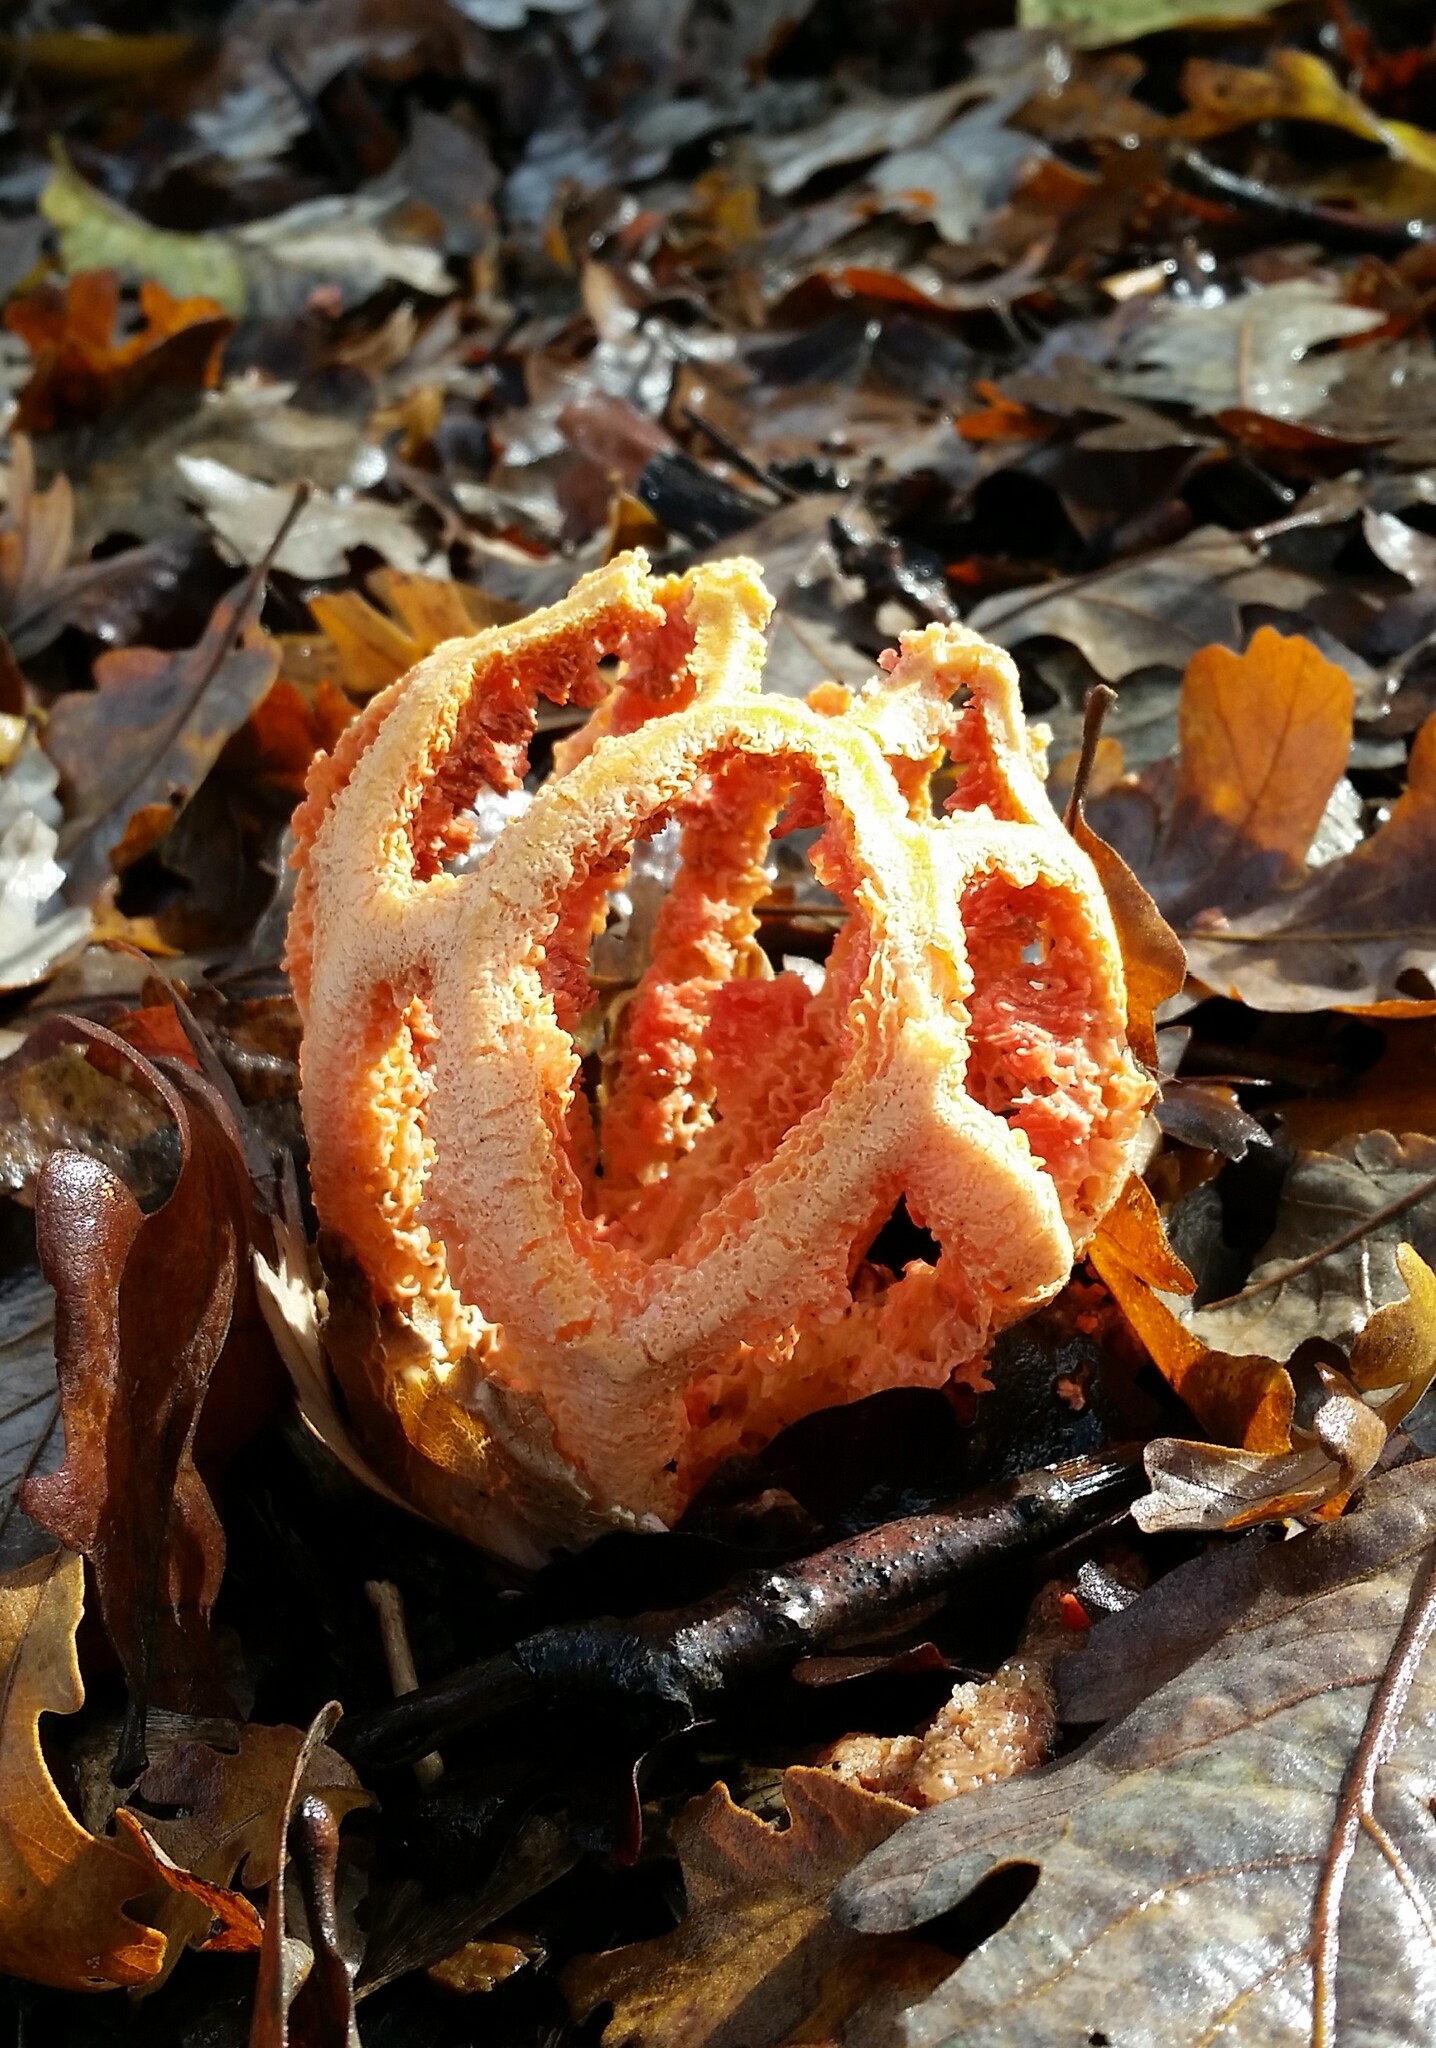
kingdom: Fungi
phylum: Basidiomycota
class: Agaricomycetes
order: Phallales
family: Phallaceae
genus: Clathrus
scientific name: Clathrus ruber
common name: Red cage
